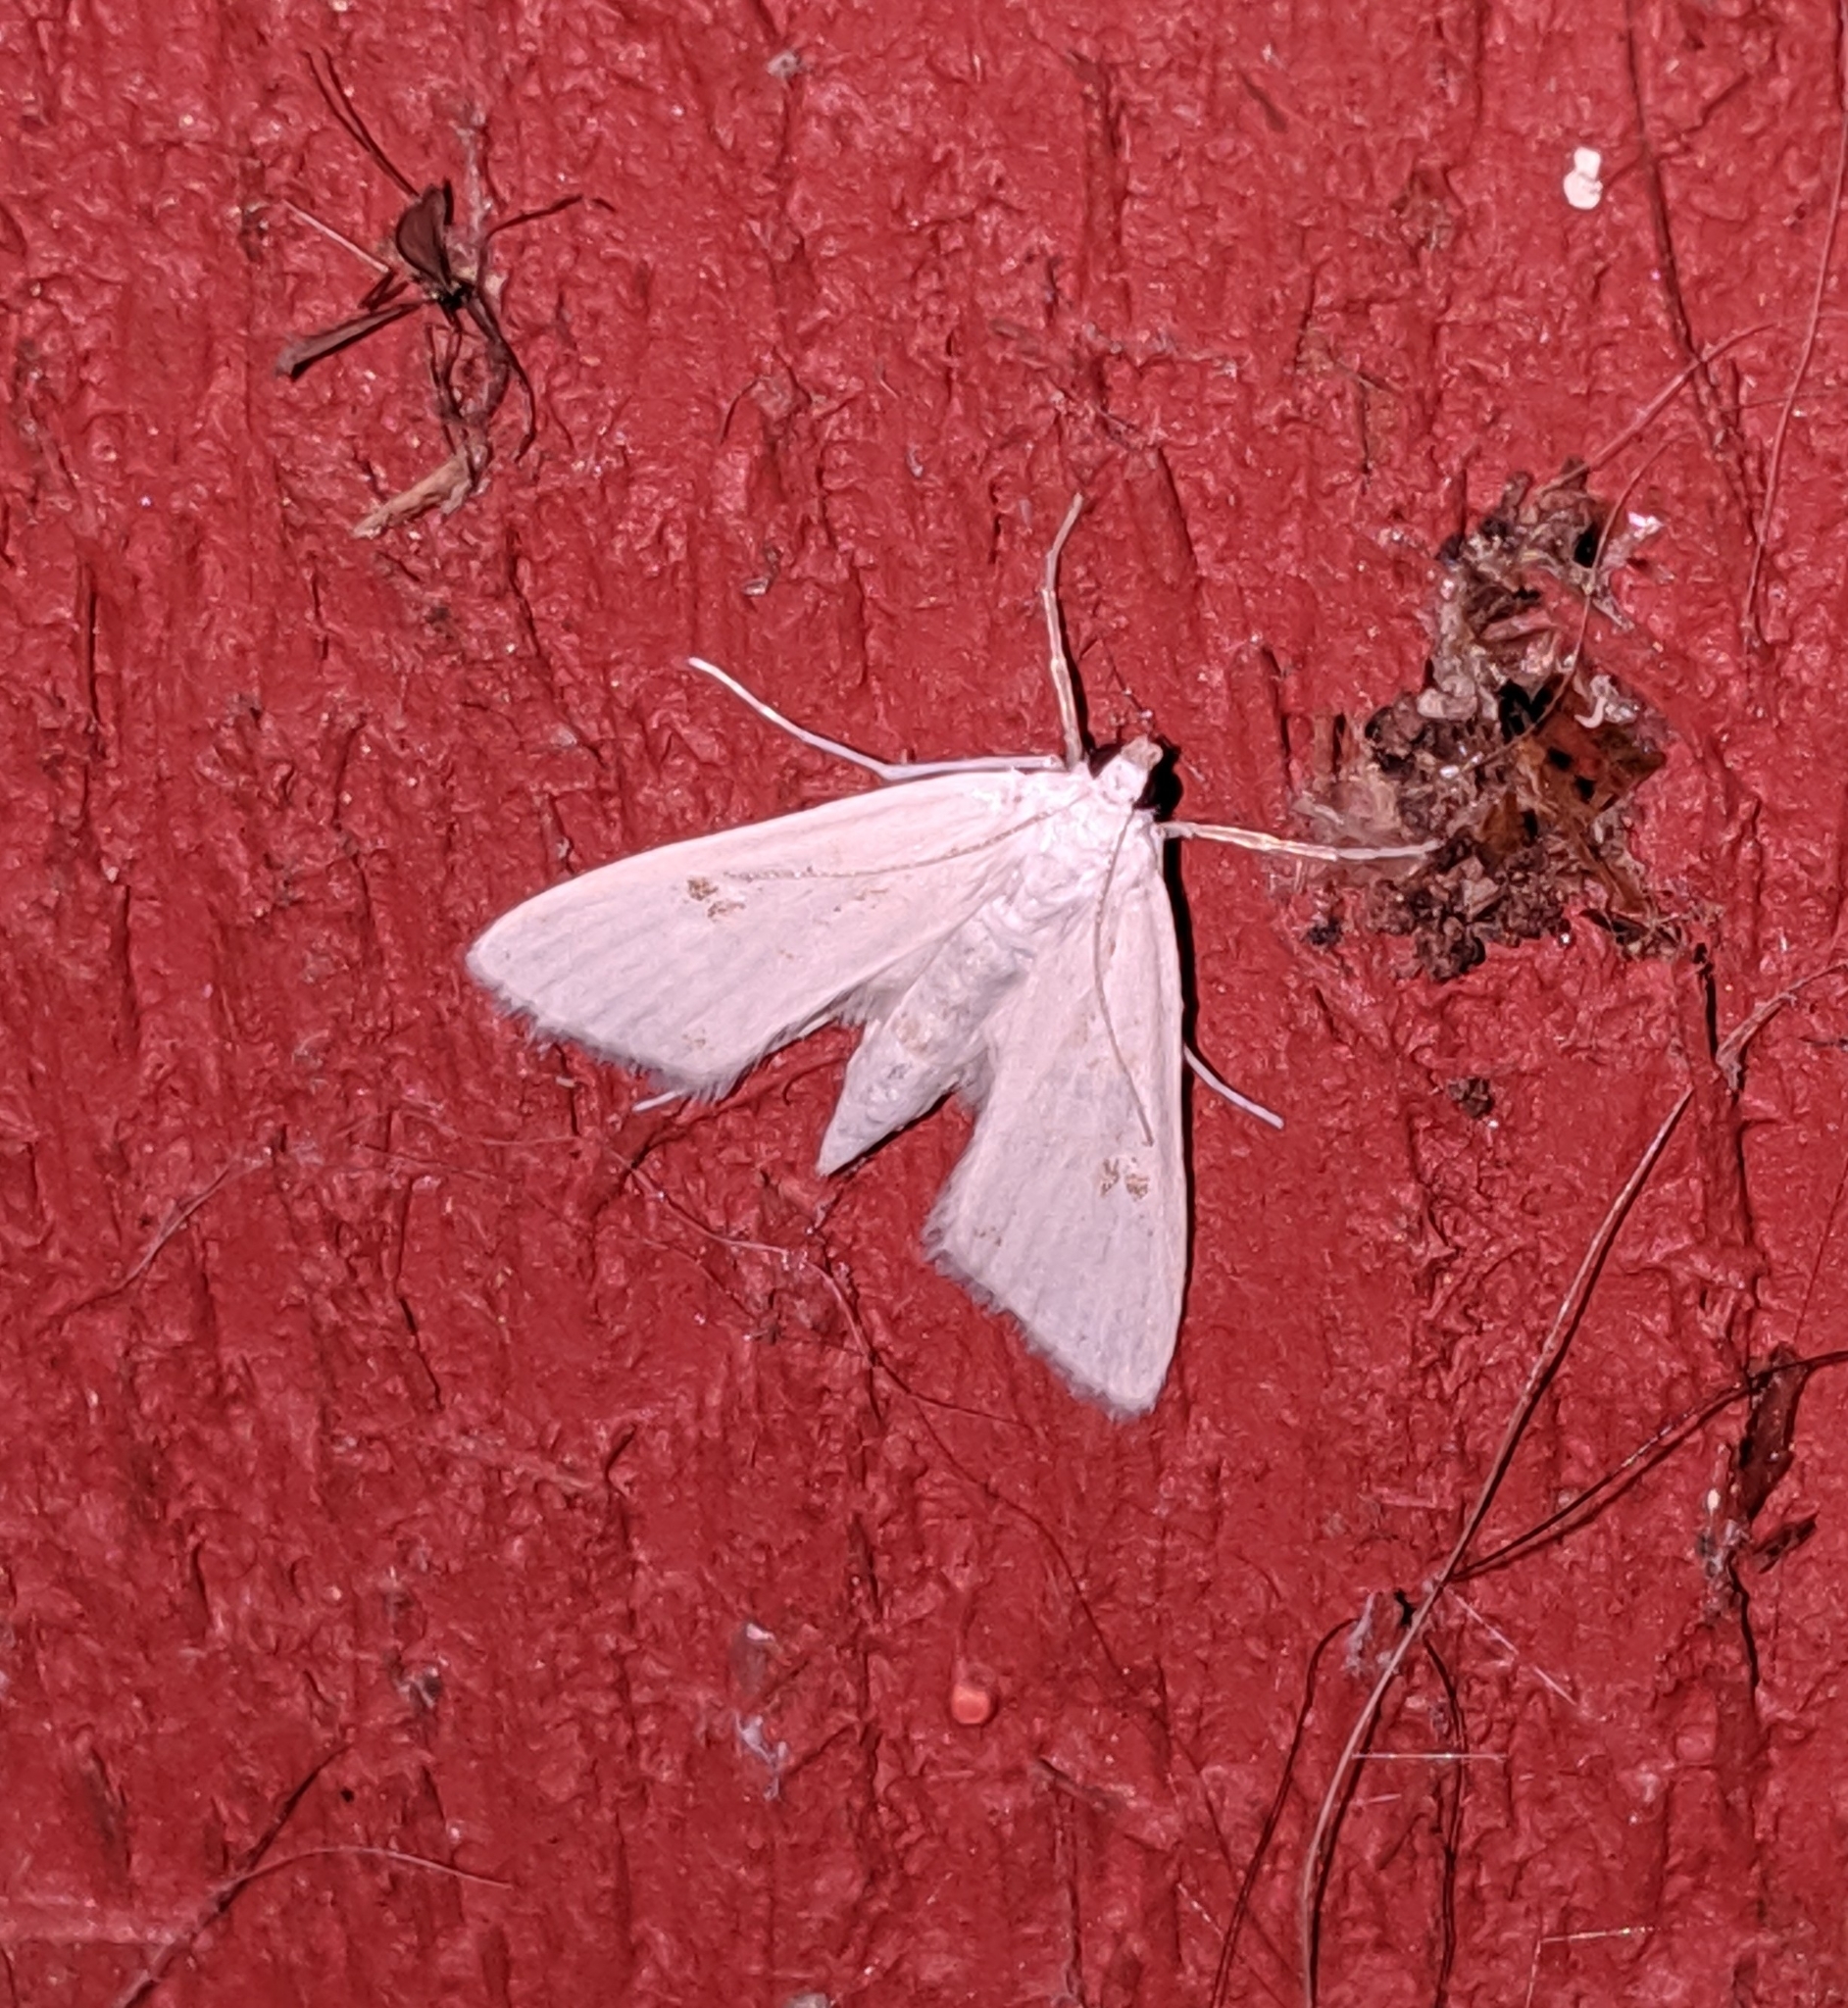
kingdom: Animalia
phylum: Arthropoda
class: Insecta
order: Lepidoptera
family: Crambidae
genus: Parapoynx
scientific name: Parapoynx allionealis
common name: Bladderwort casemaker
